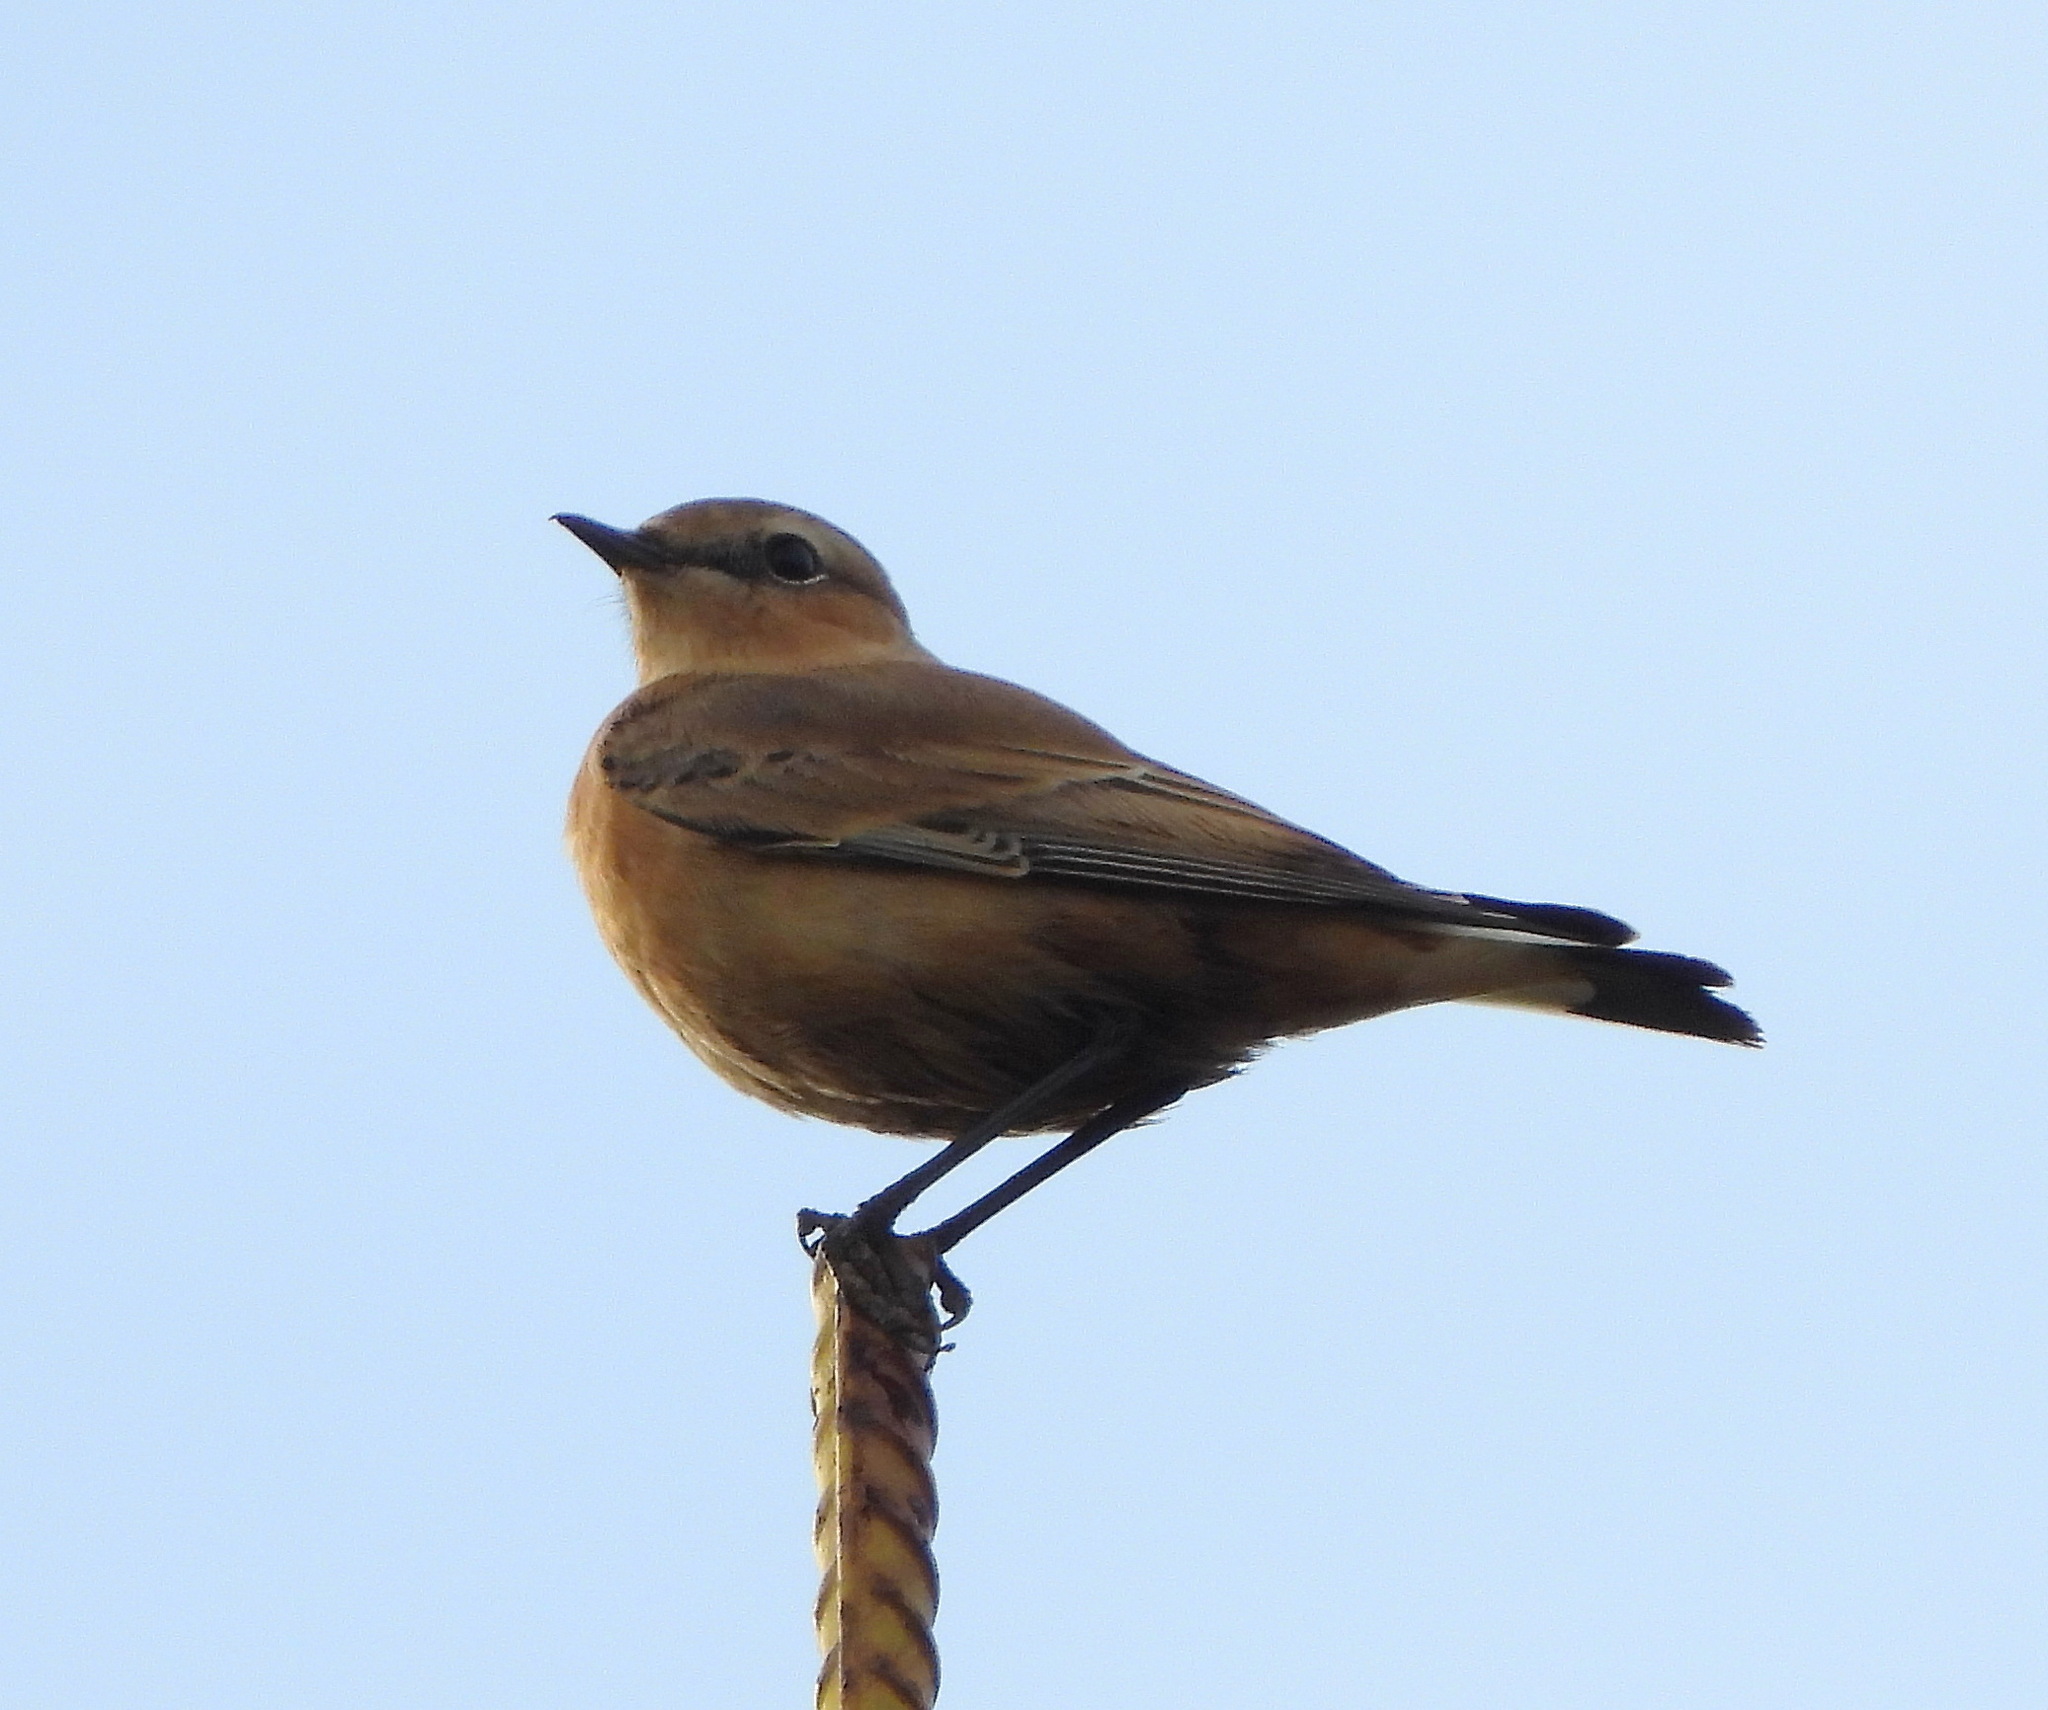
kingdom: Animalia
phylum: Chordata
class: Aves
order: Passeriformes
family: Muscicapidae
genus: Oenanthe
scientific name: Oenanthe oenanthe
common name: Northern wheatear
